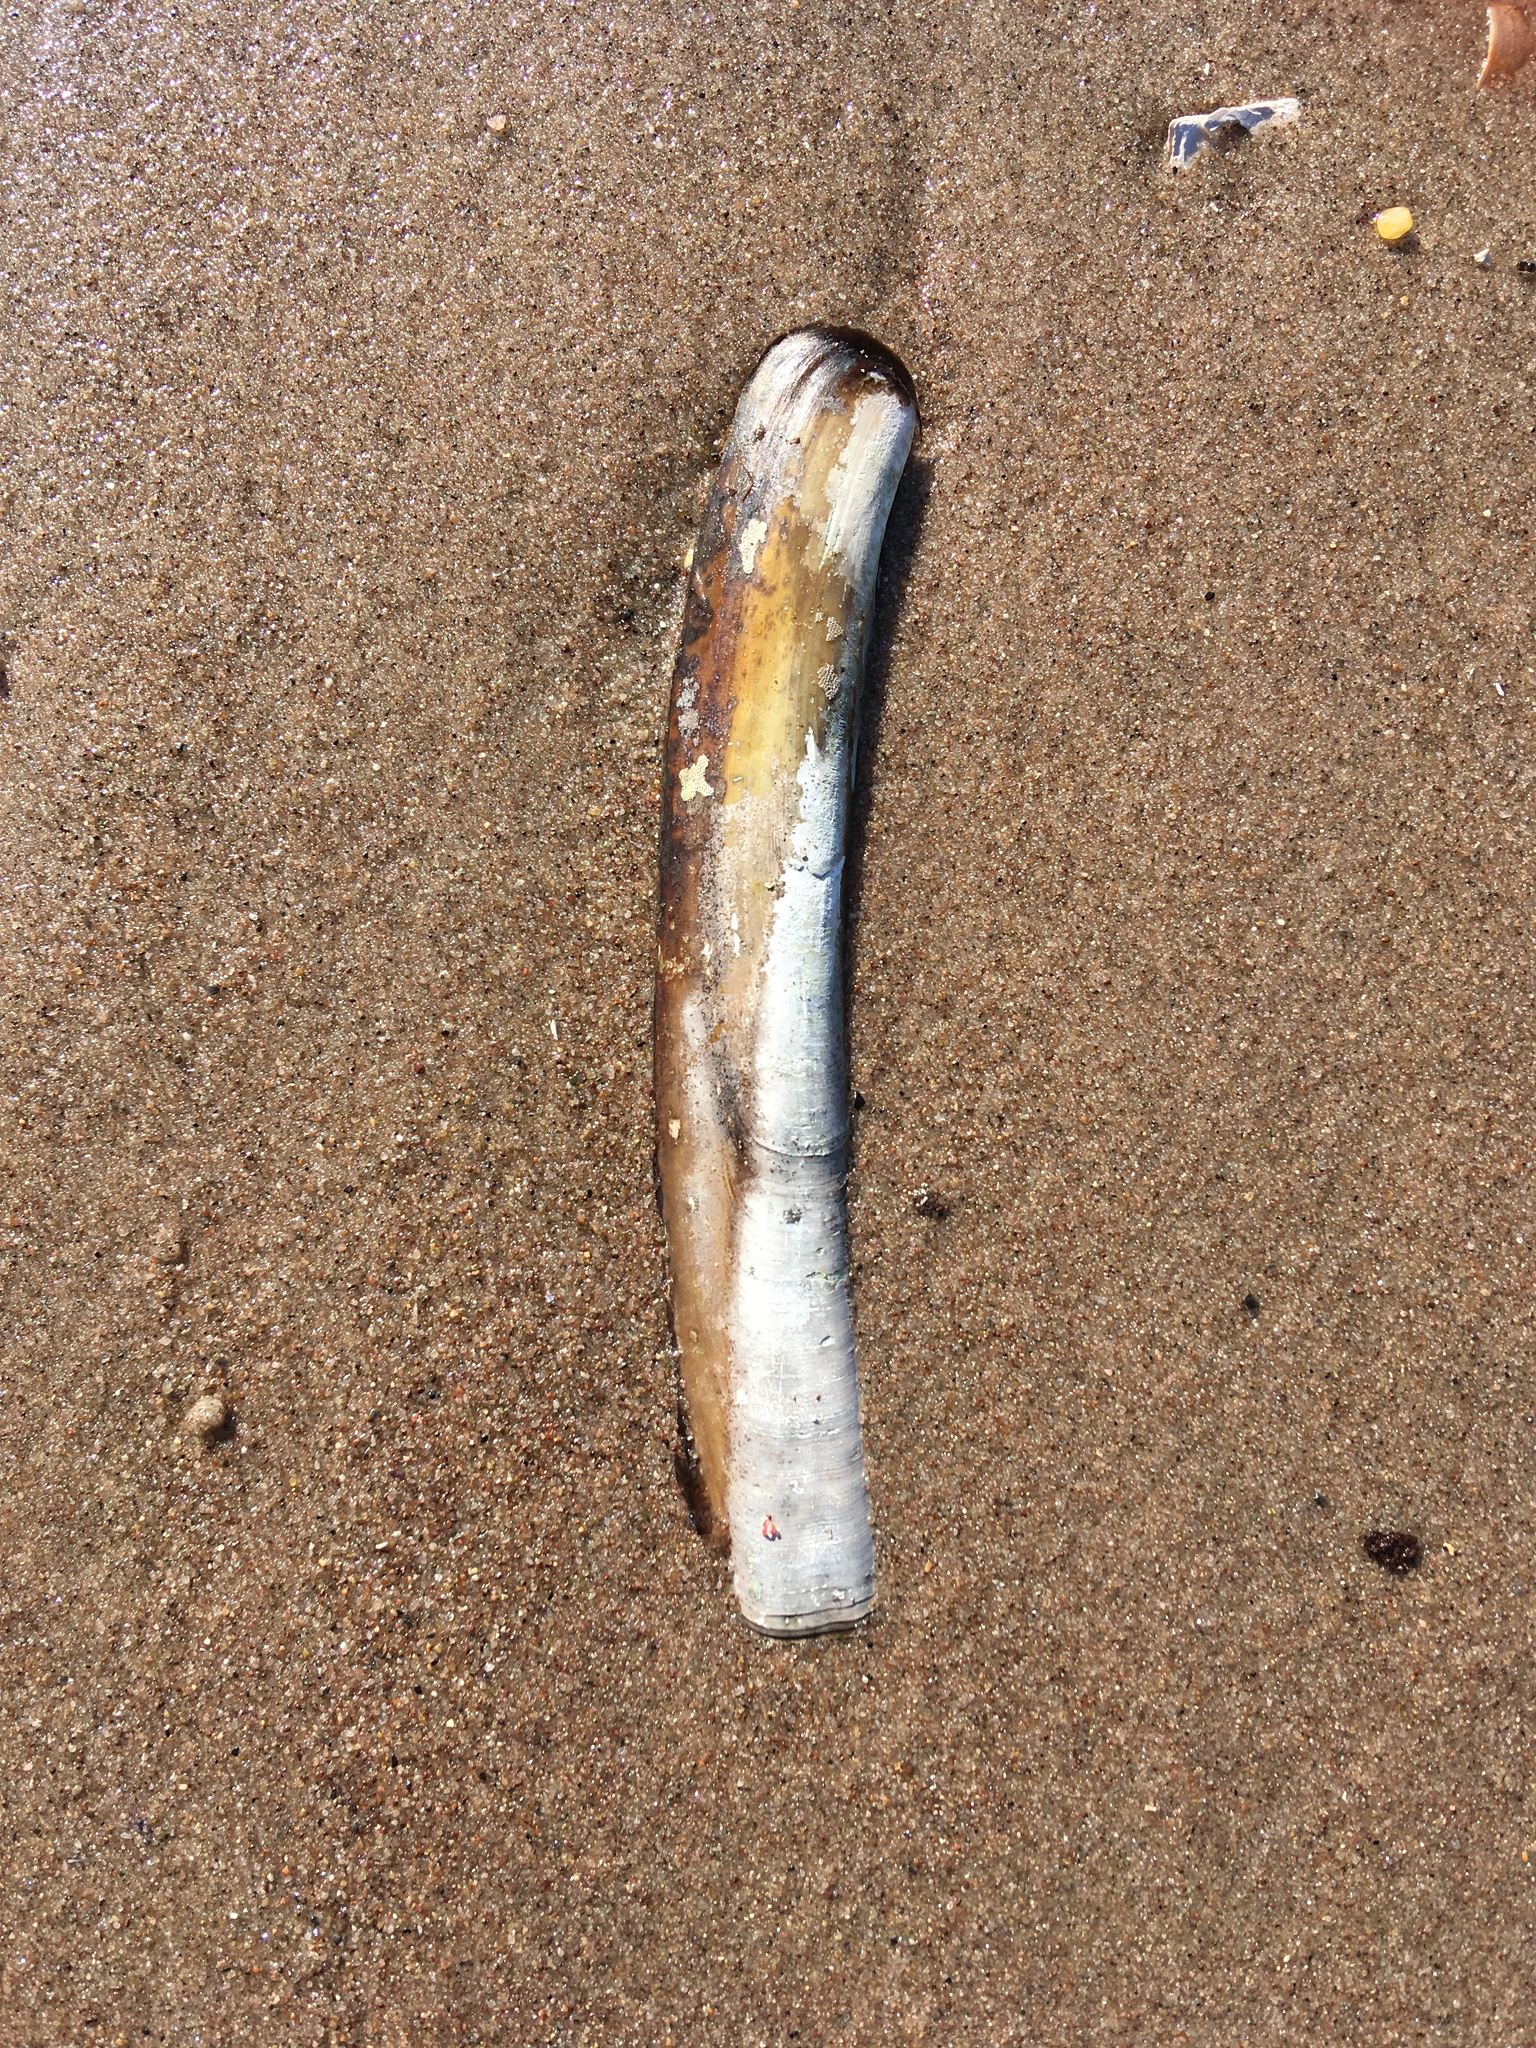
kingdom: Animalia
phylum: Mollusca
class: Bivalvia
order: Adapedonta
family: Pharidae
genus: Ensis
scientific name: Ensis leei
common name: American jack knife clam
